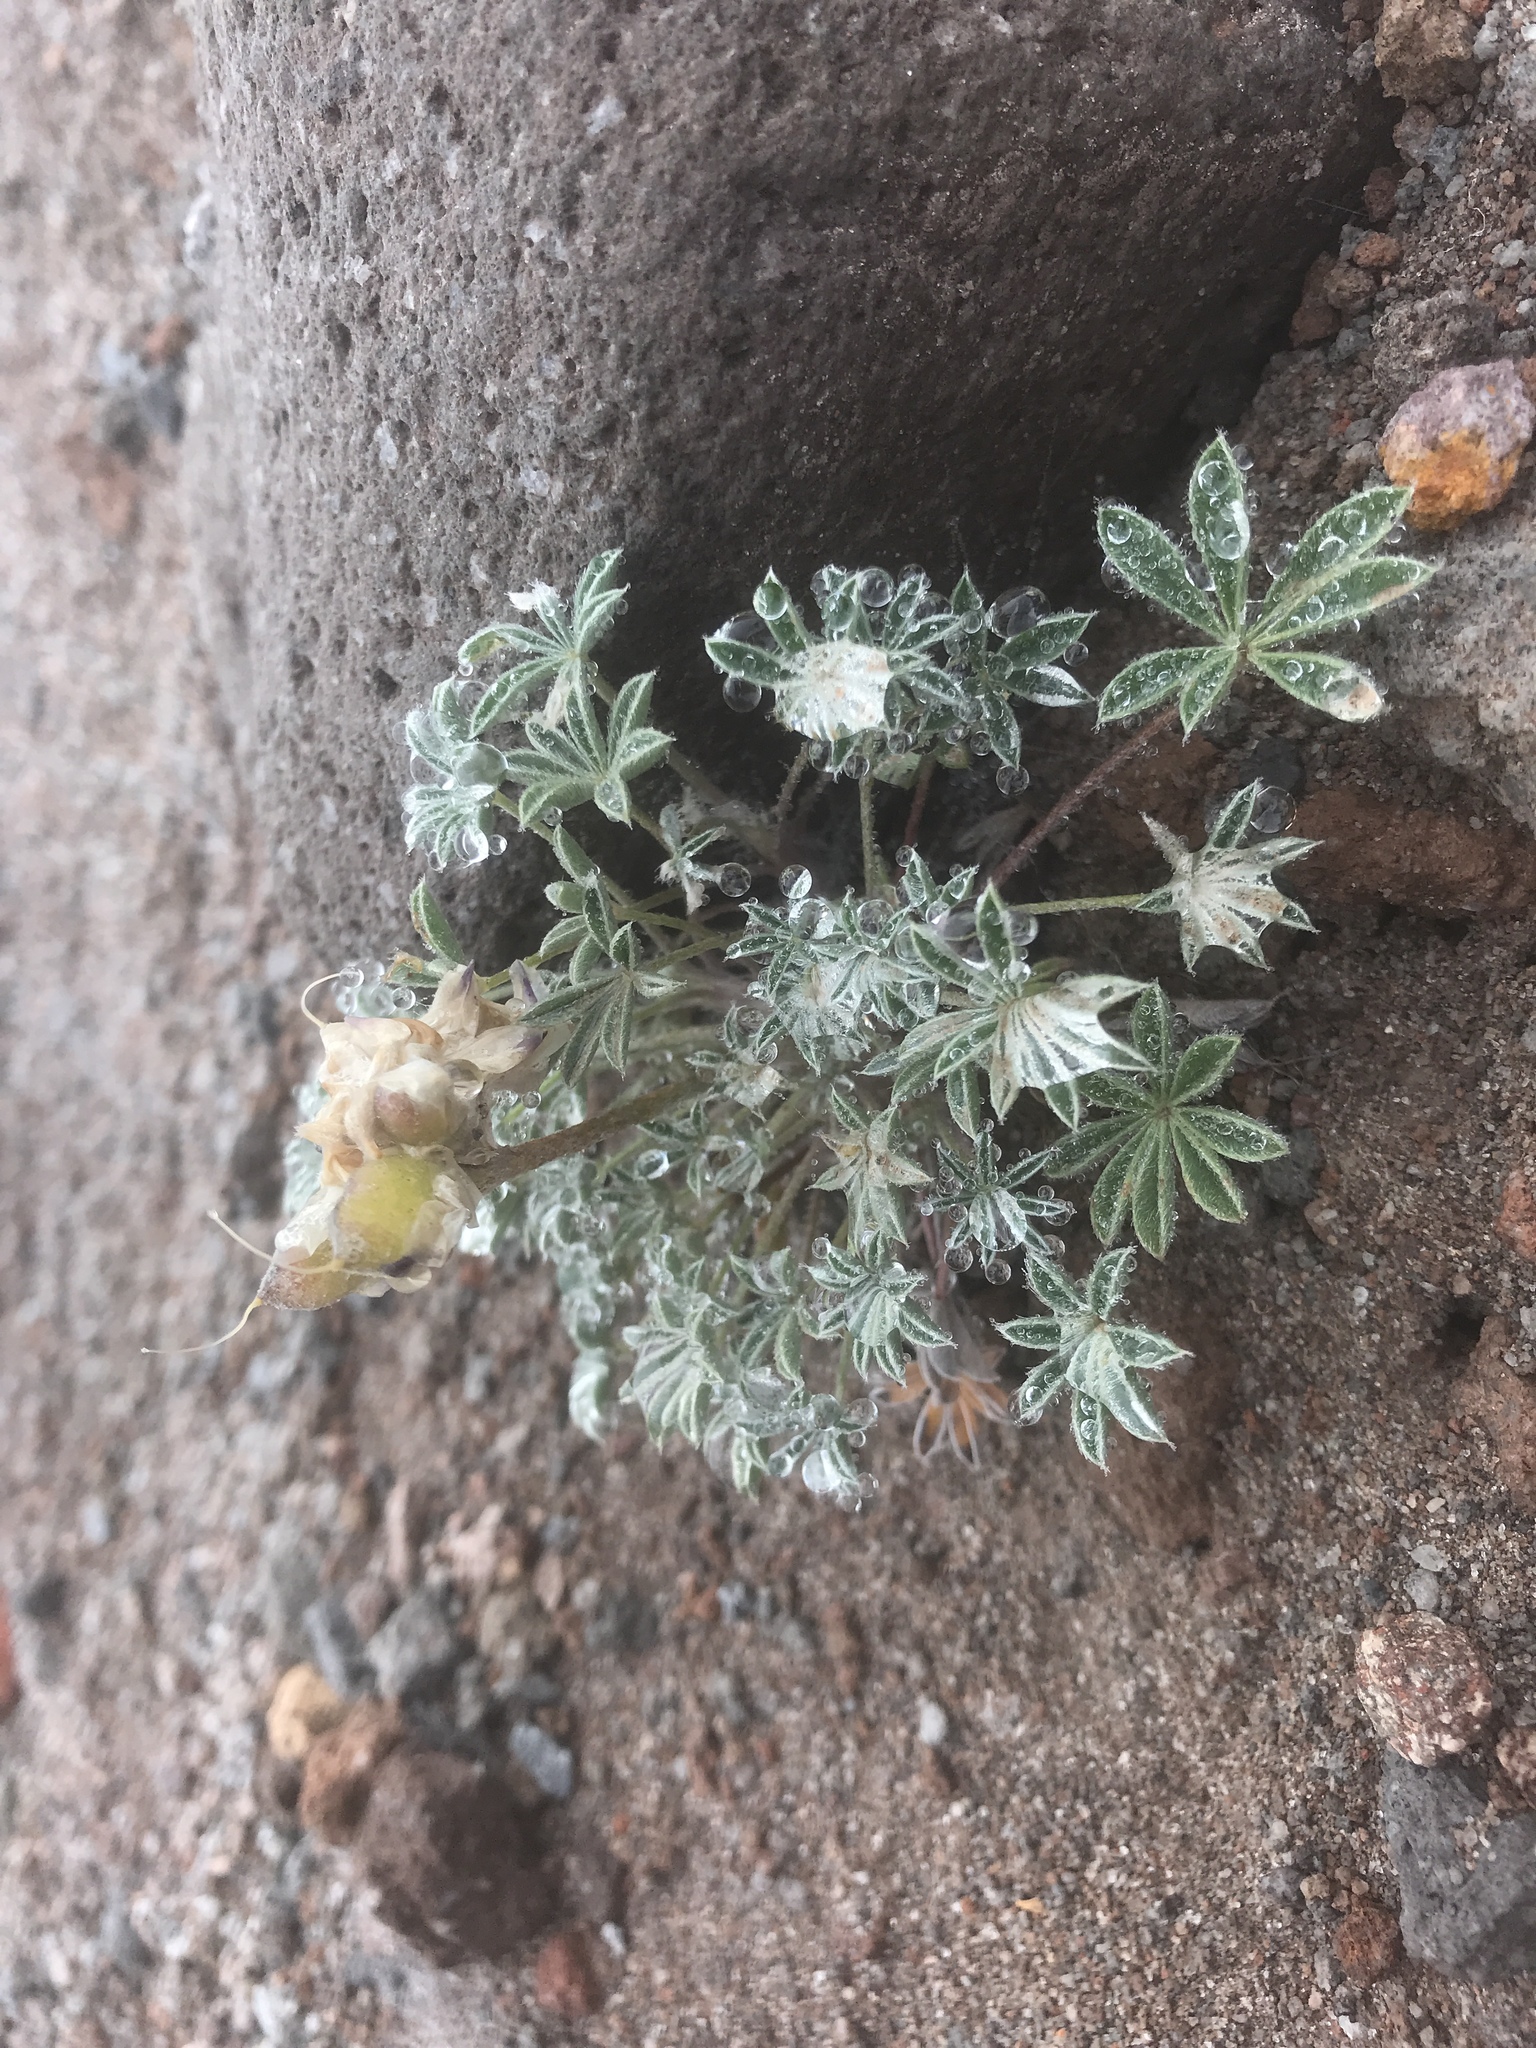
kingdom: Plantae
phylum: Tracheophyta
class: Magnoliopsida
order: Fabales
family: Fabaceae
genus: Lupinus
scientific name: Lupinus lepidus
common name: Prairie lupine
